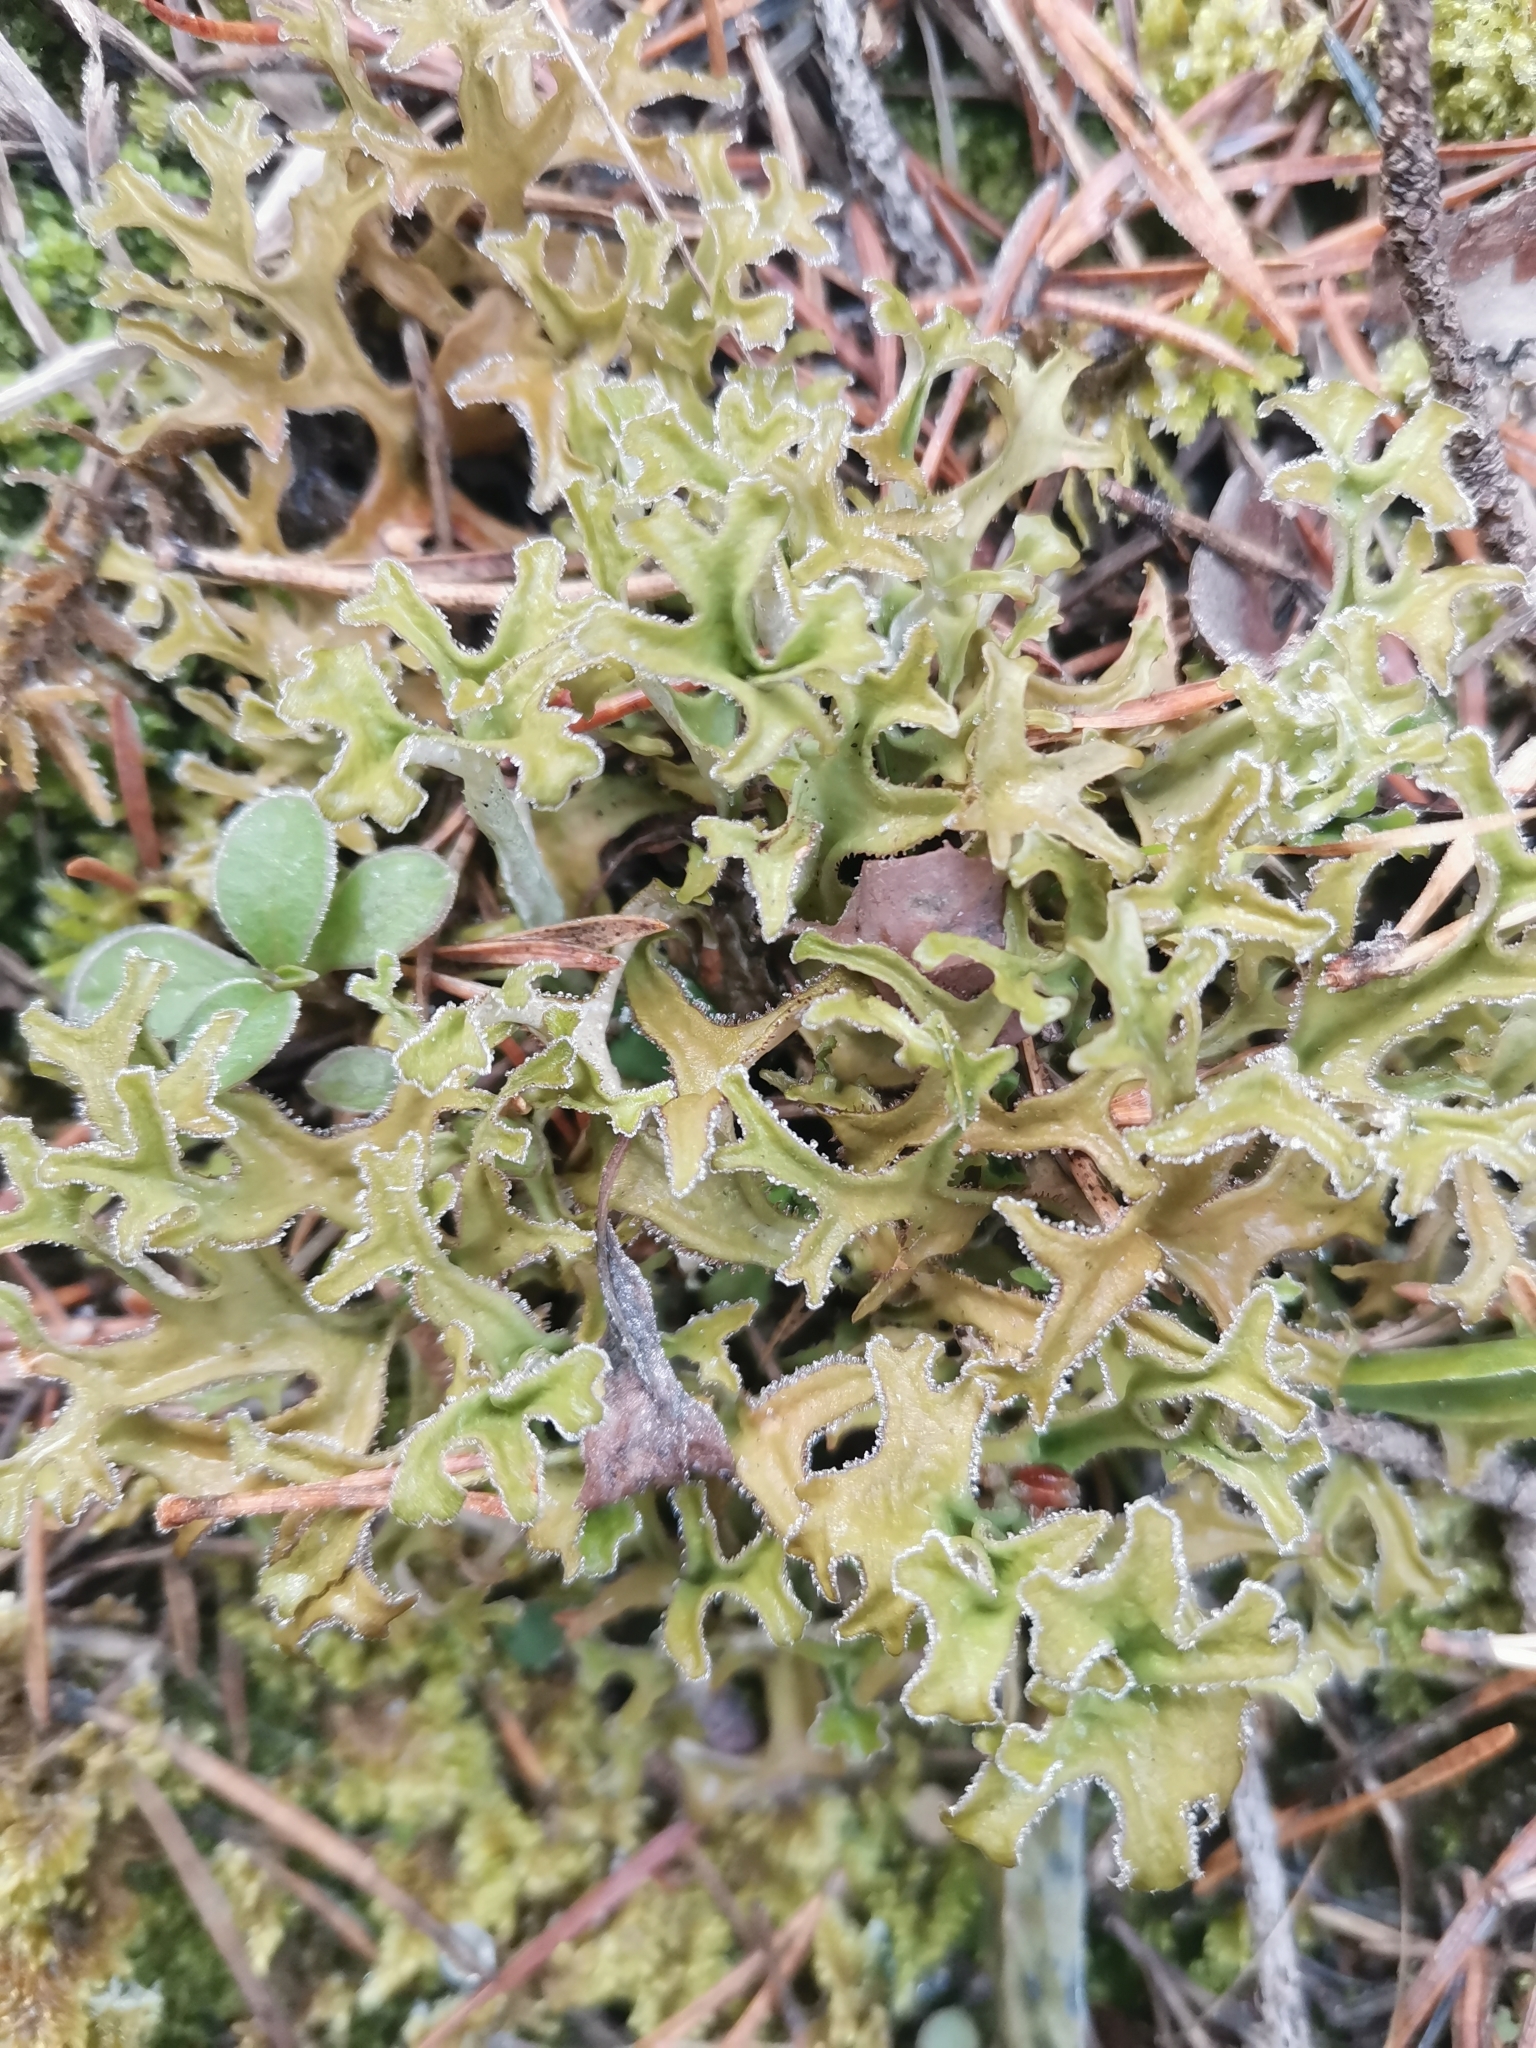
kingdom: Fungi
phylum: Ascomycota
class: Lecanoromycetes
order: Lecanorales
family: Parmeliaceae
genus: Cetraria
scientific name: Cetraria islandica
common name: Iceland lichen
